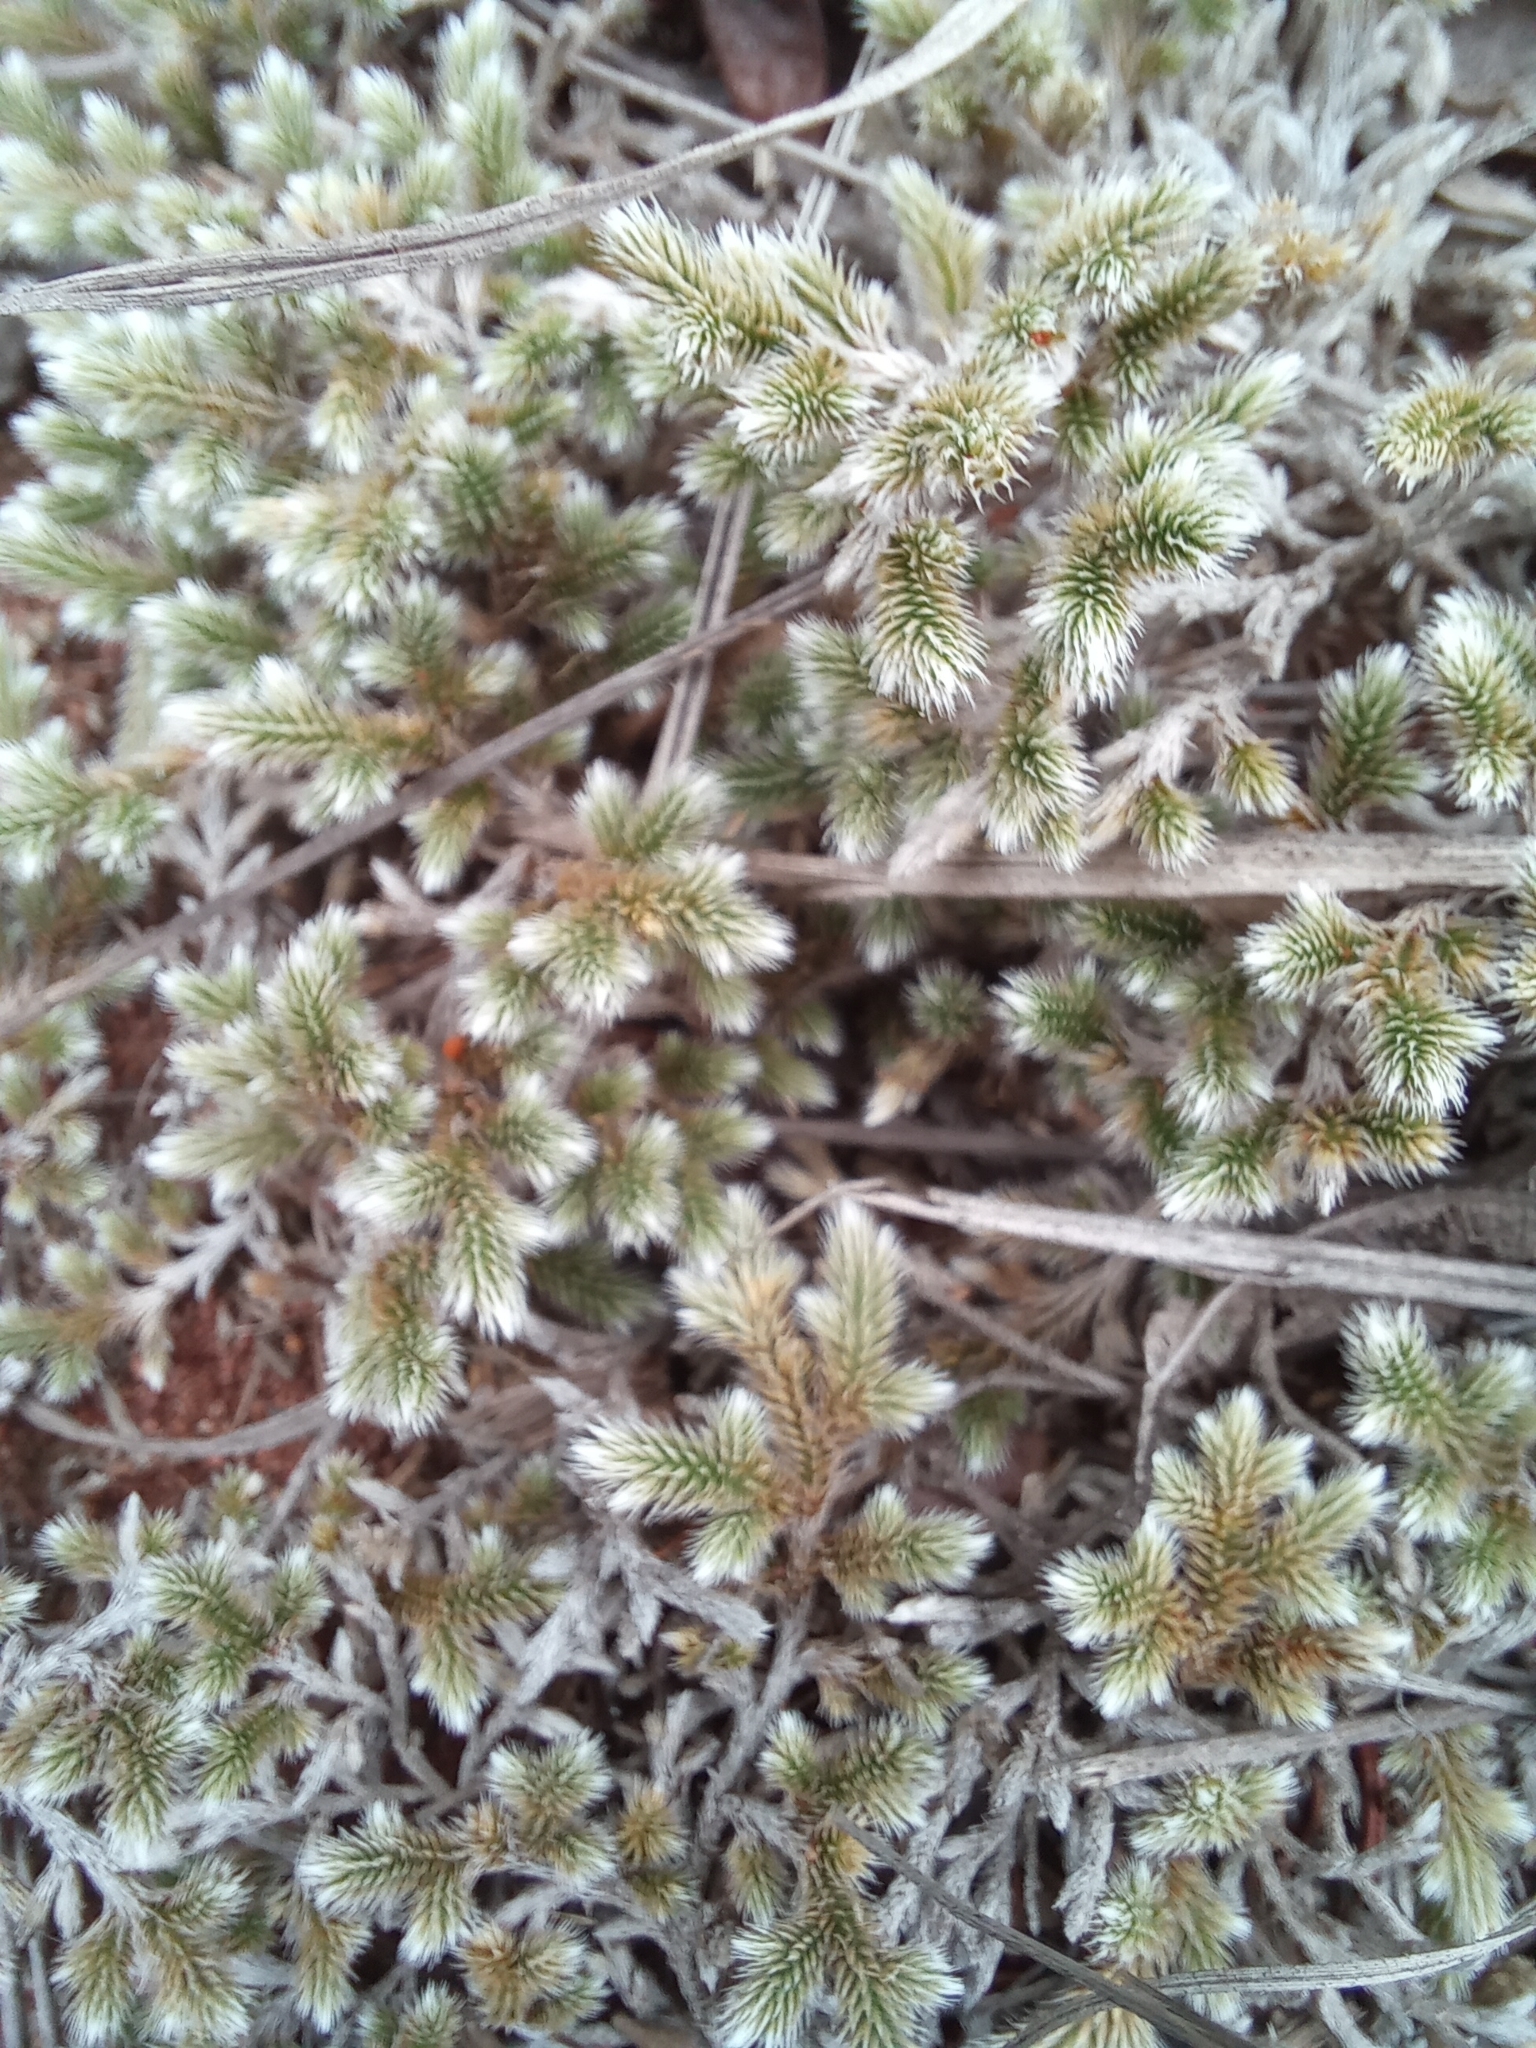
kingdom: Plantae
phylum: Tracheophyta
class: Lycopodiopsida
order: Selaginellales
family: Selaginellaceae
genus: Selaginella
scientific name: Selaginella dregei
